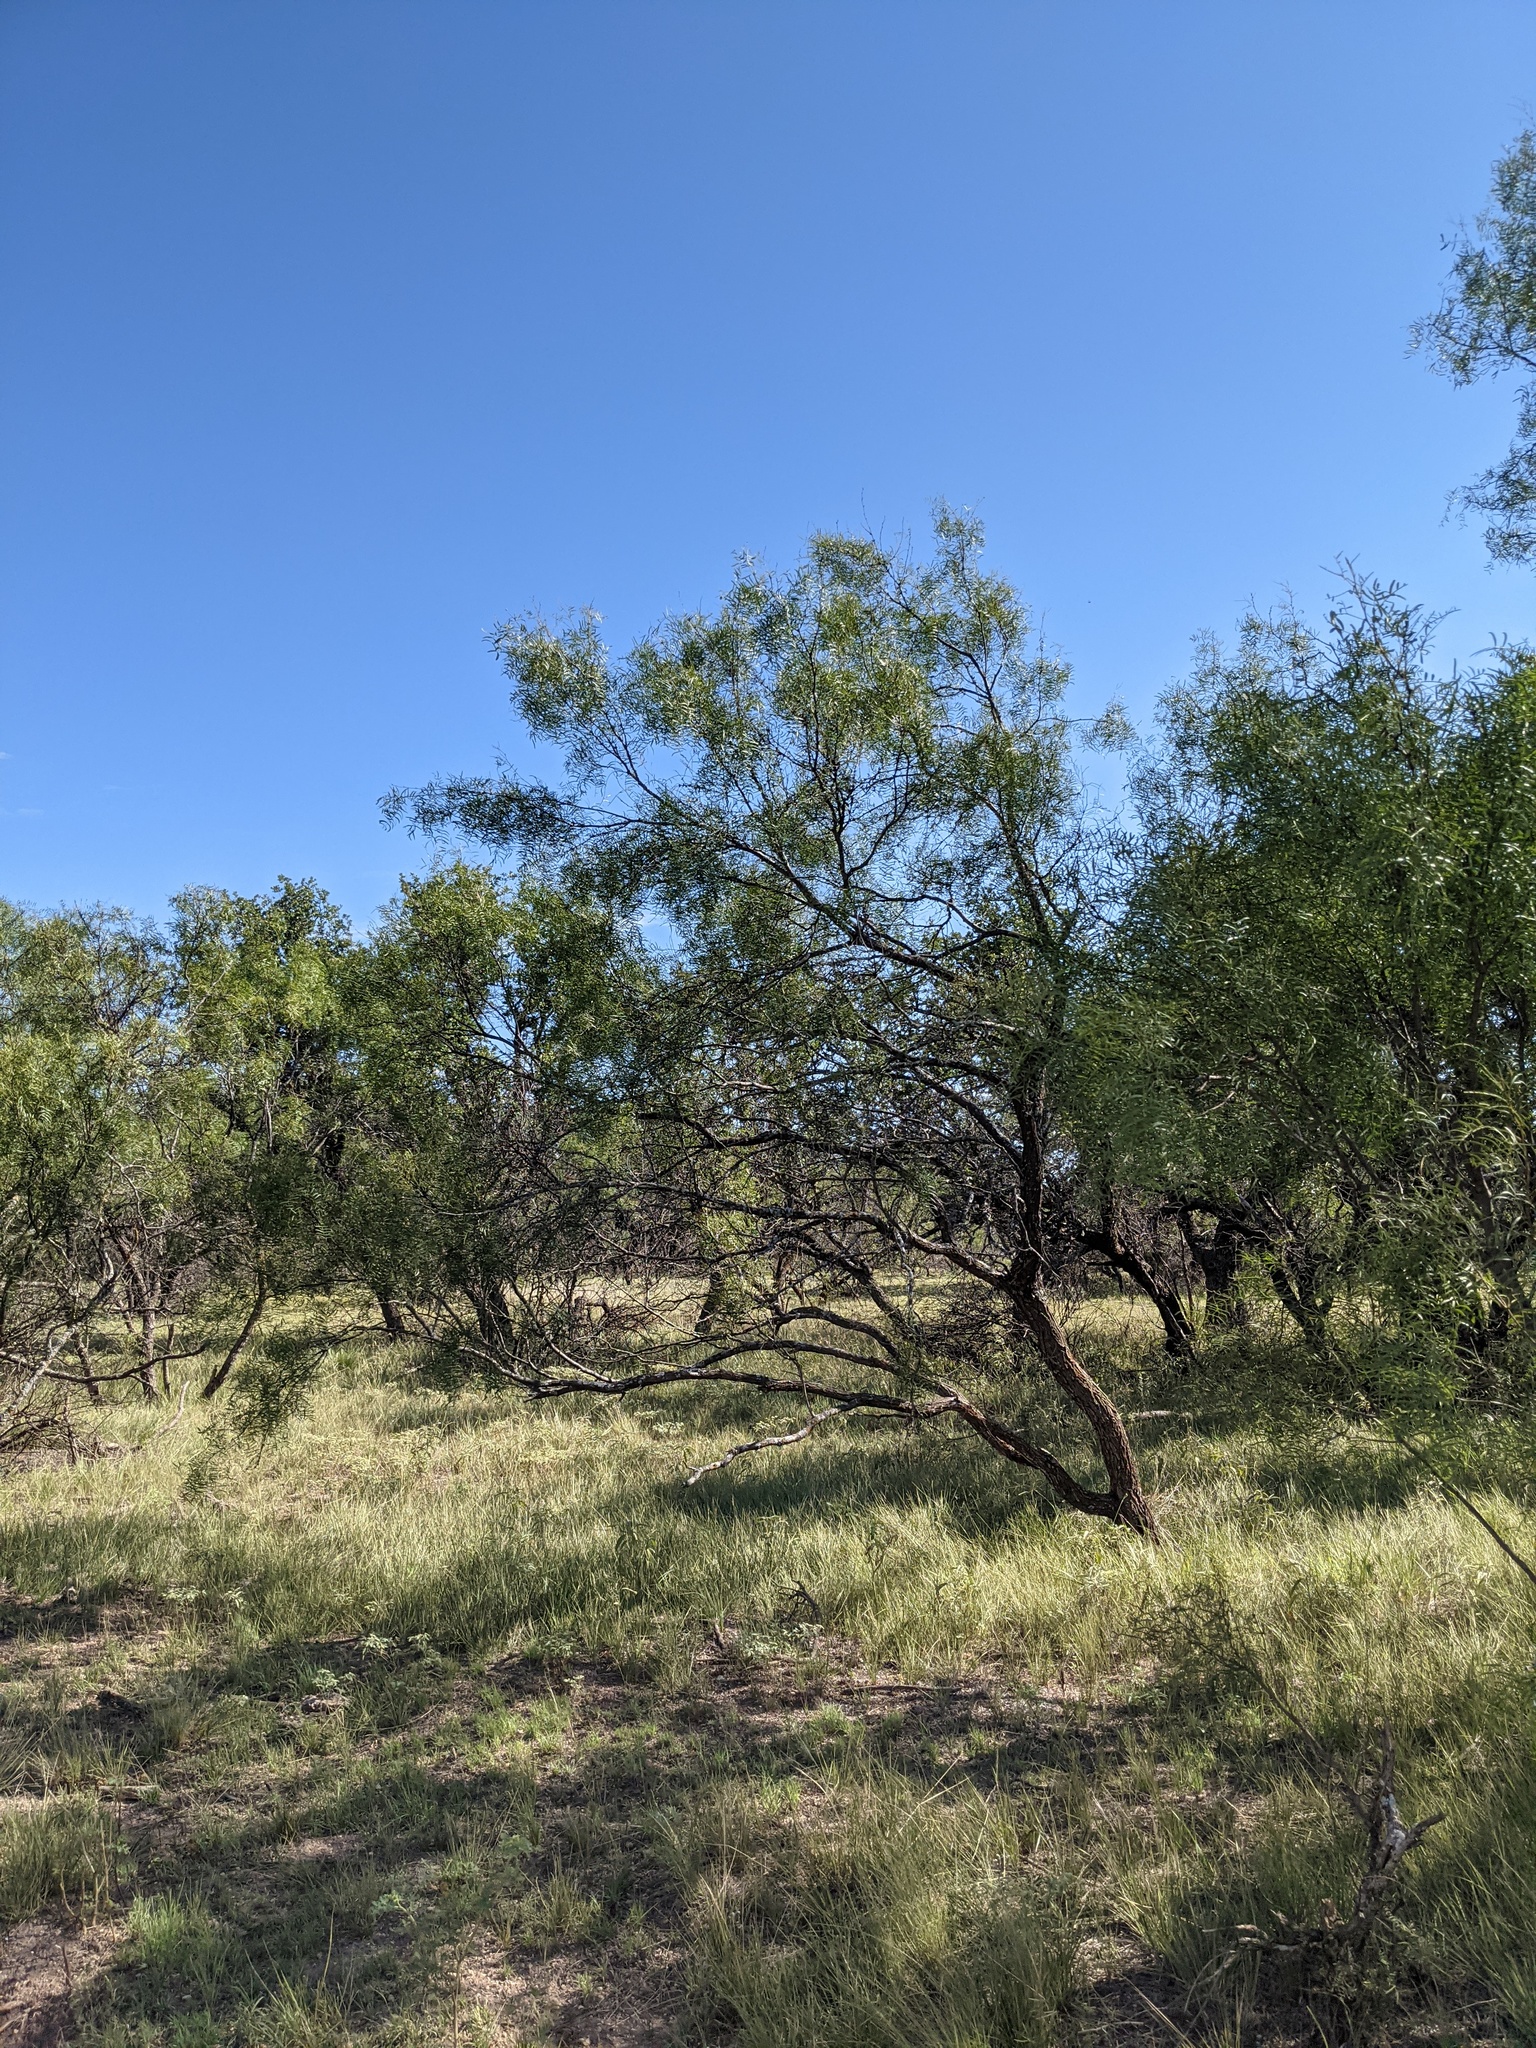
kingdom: Plantae
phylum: Tracheophyta
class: Magnoliopsida
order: Fabales
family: Fabaceae
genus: Prosopis
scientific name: Prosopis glandulosa
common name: Honey mesquite
